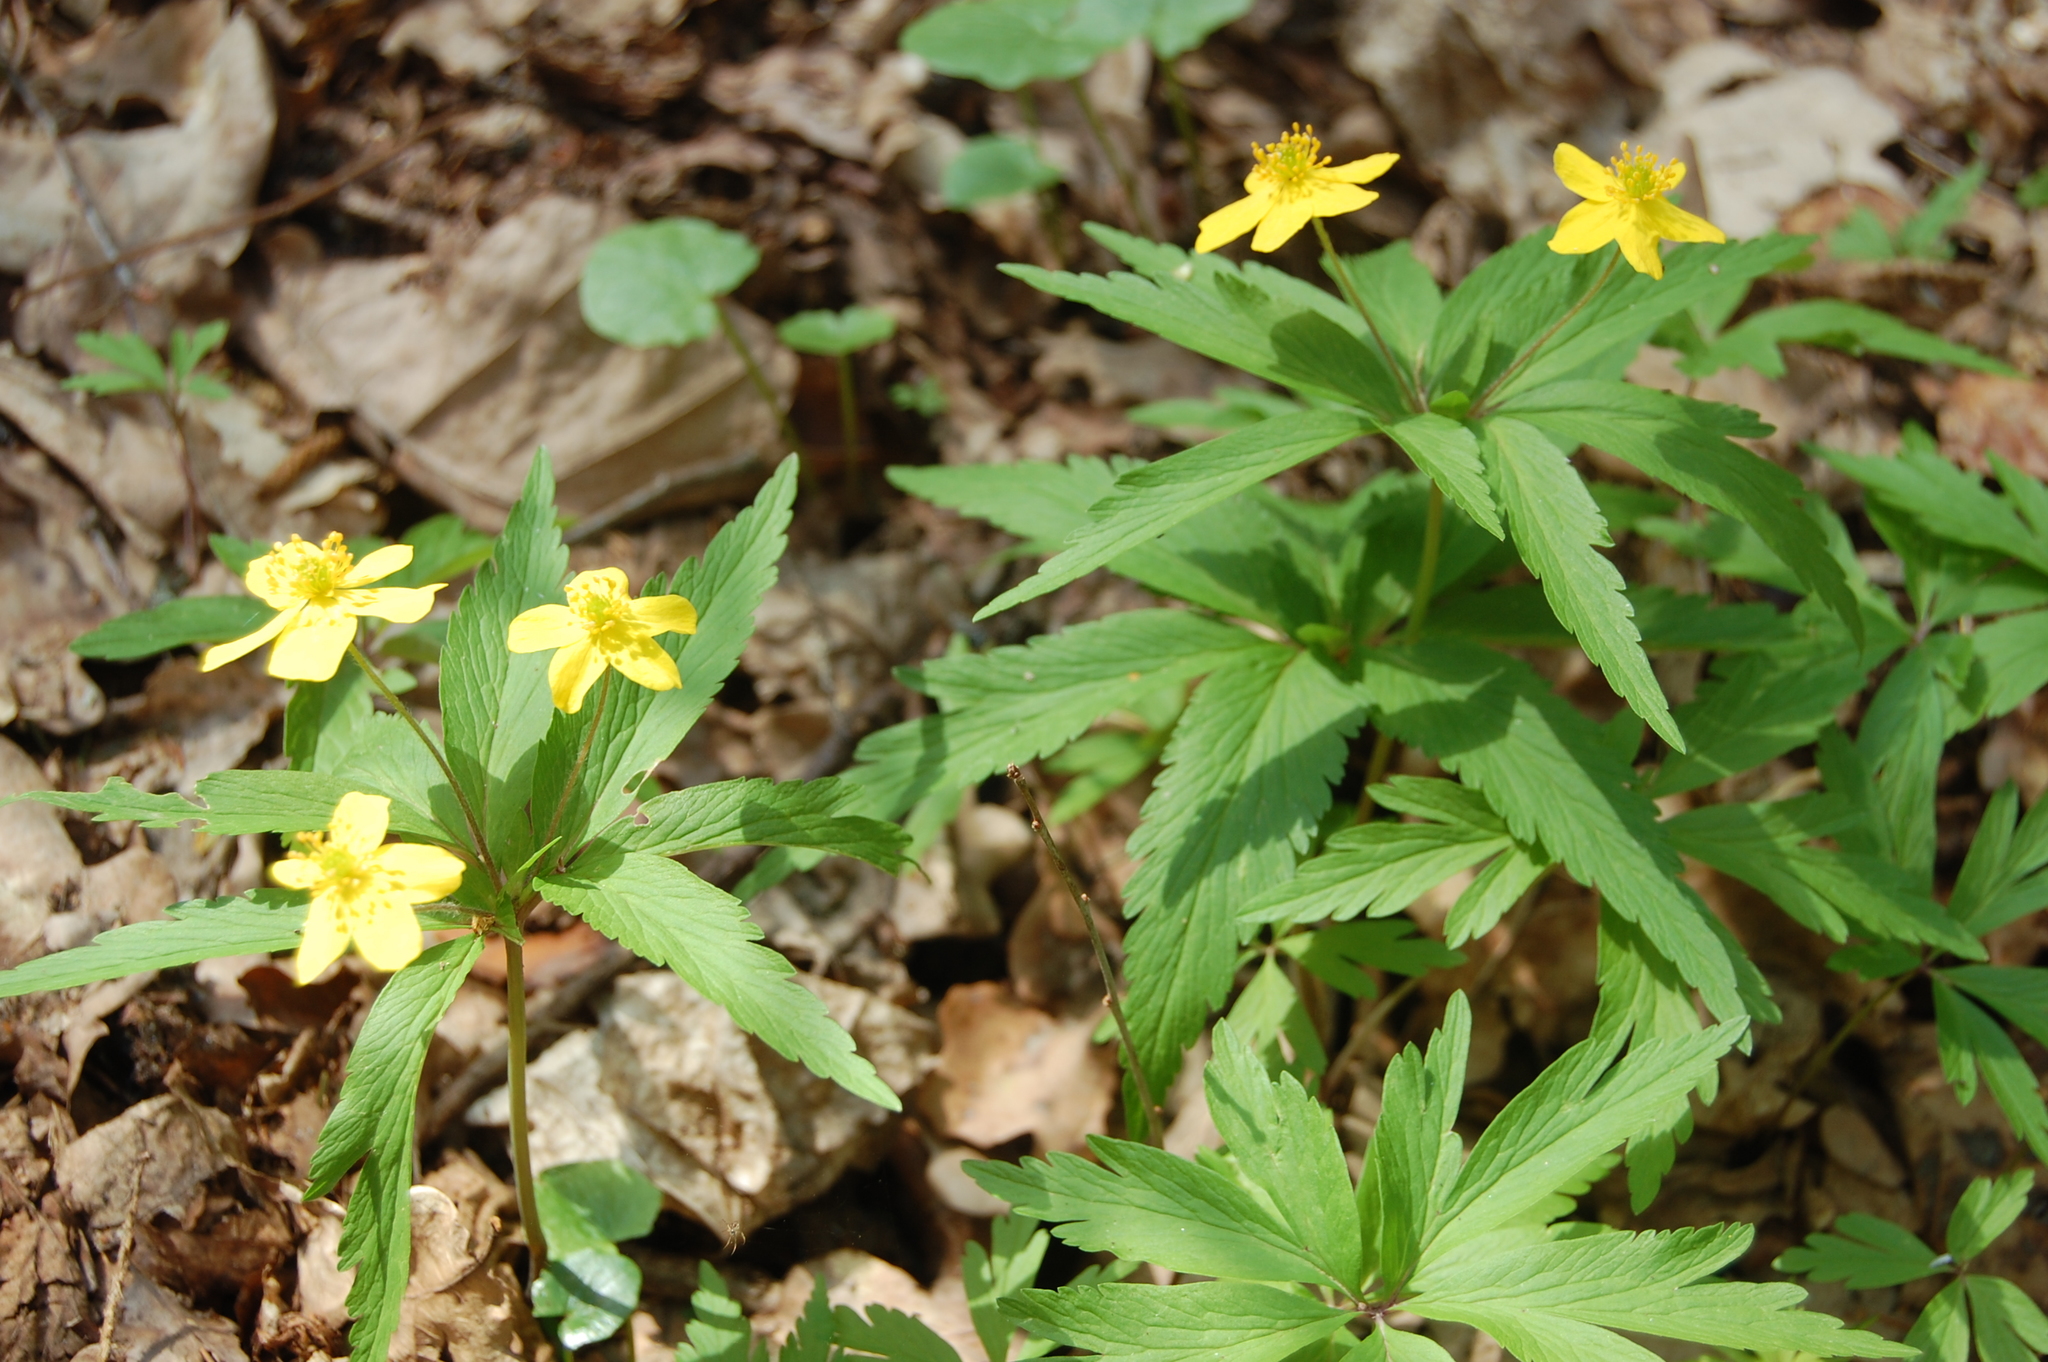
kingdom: Plantae
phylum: Tracheophyta
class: Magnoliopsida
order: Ranunculales
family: Ranunculaceae
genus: Anemone
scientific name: Anemone ranunculoides
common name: Yellow anemone
